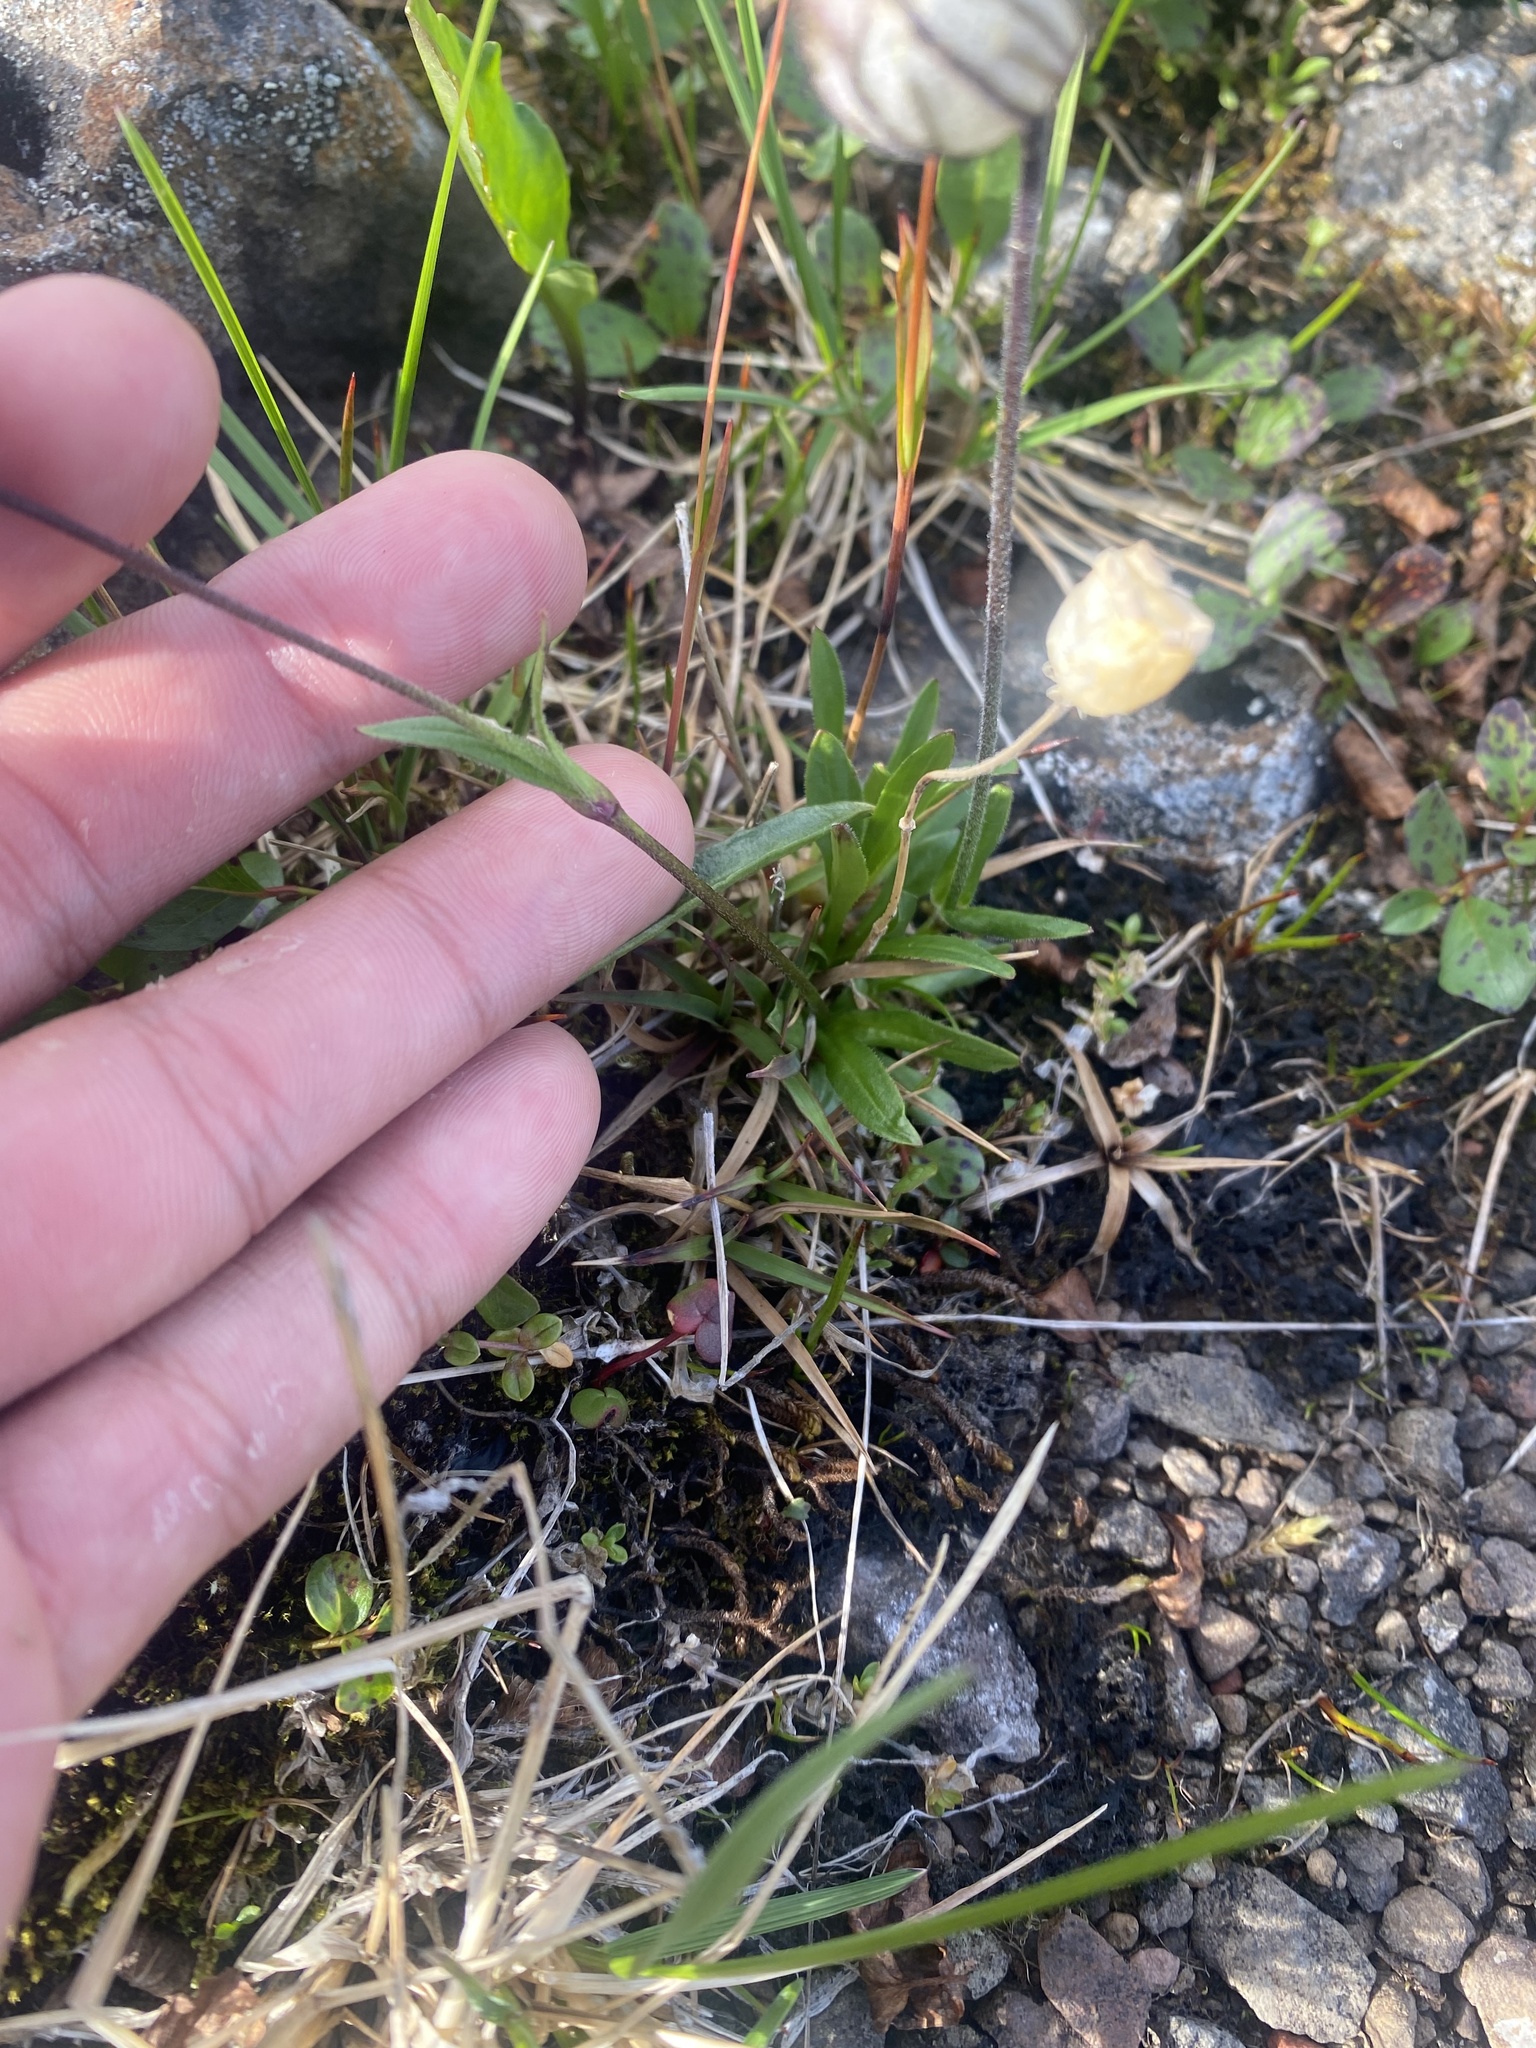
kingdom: Plantae
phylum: Tracheophyta
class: Magnoliopsida
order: Caryophyllales
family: Caryophyllaceae
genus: Silene
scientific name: Silene wahlbergella
